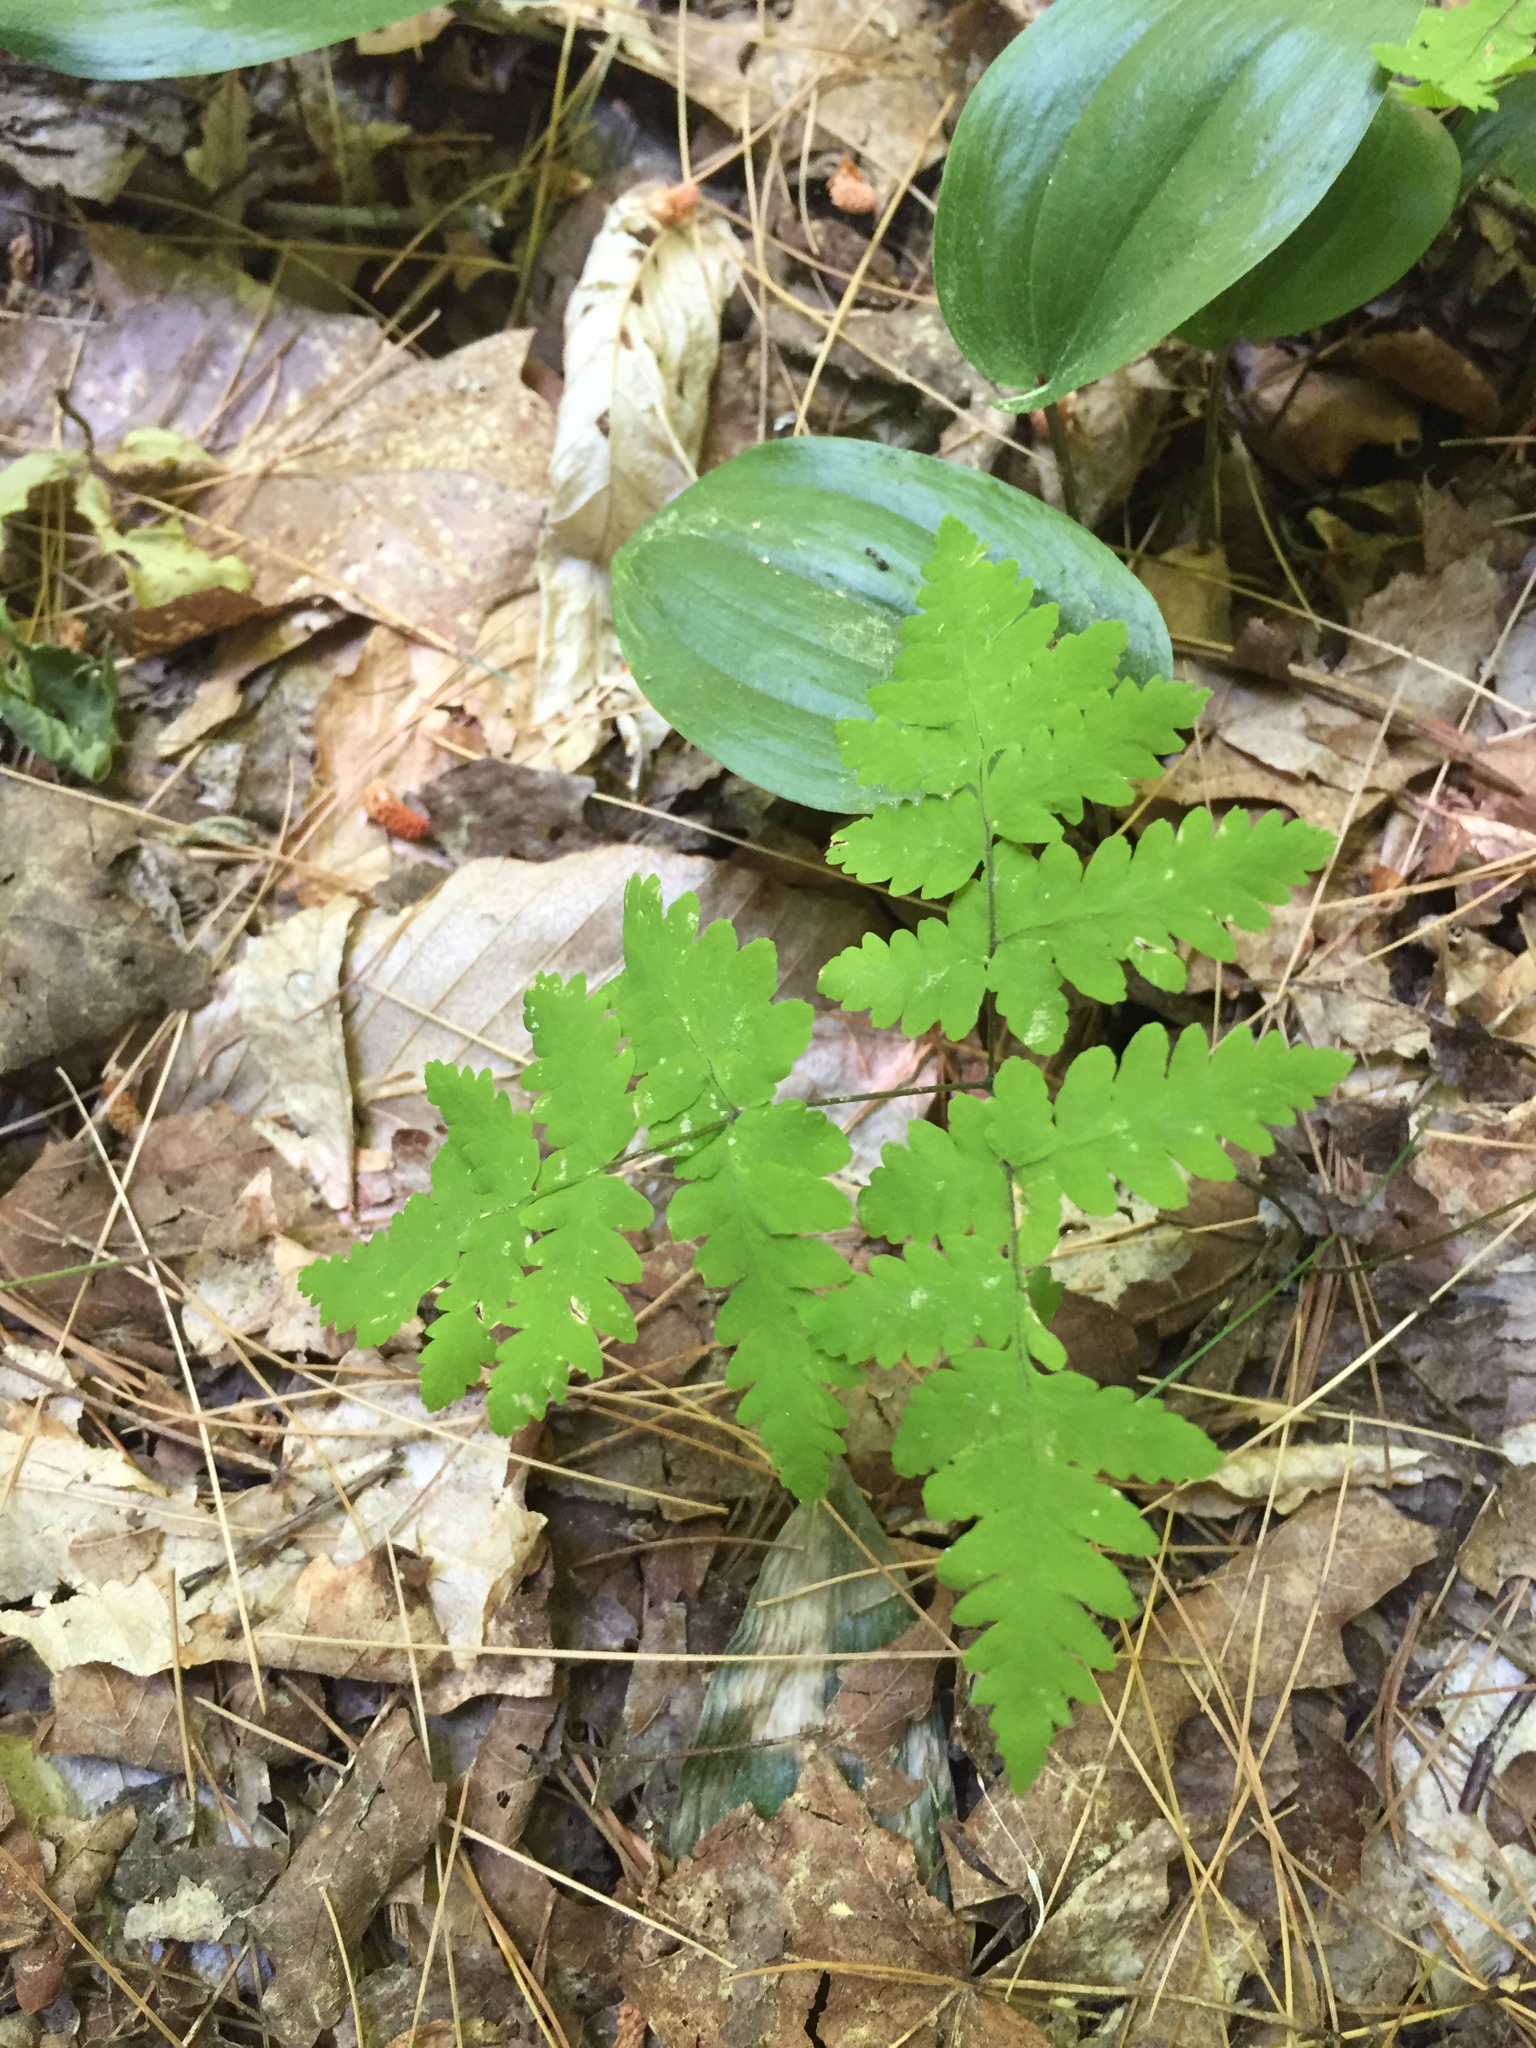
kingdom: Plantae
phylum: Tracheophyta
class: Polypodiopsida
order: Polypodiales
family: Cystopteridaceae
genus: Gymnocarpium
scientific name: Gymnocarpium dryopteris
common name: Oak fern
